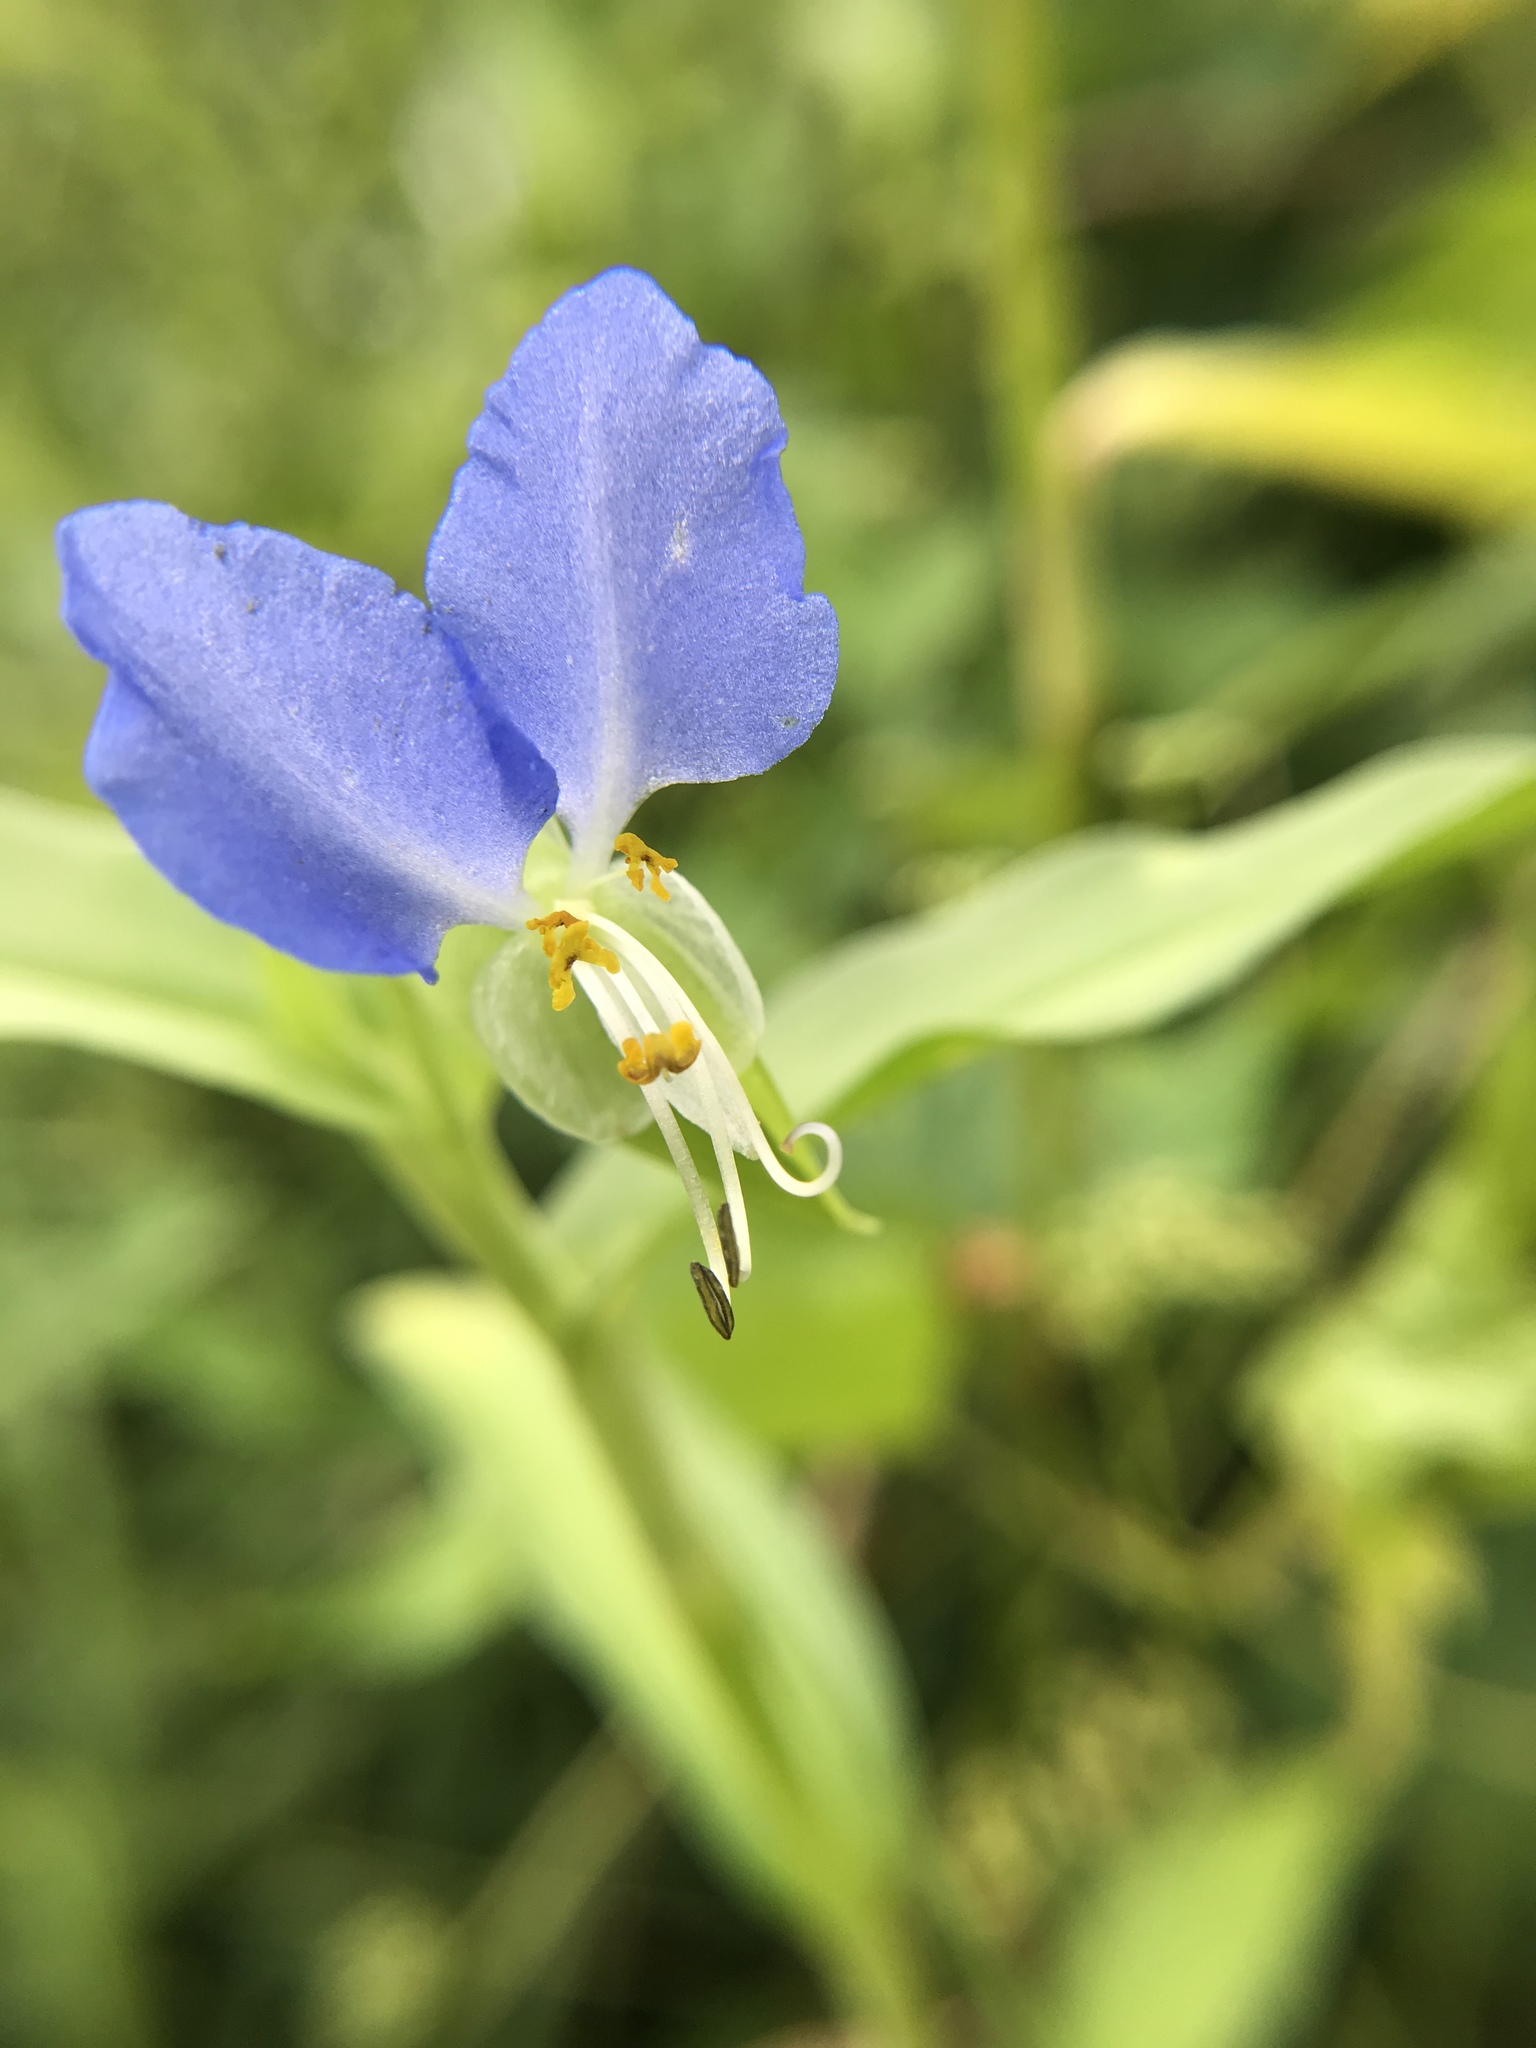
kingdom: Plantae
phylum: Tracheophyta
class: Liliopsida
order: Commelinales
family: Commelinaceae
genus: Commelina
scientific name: Commelina communis
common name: Asiatic dayflower
